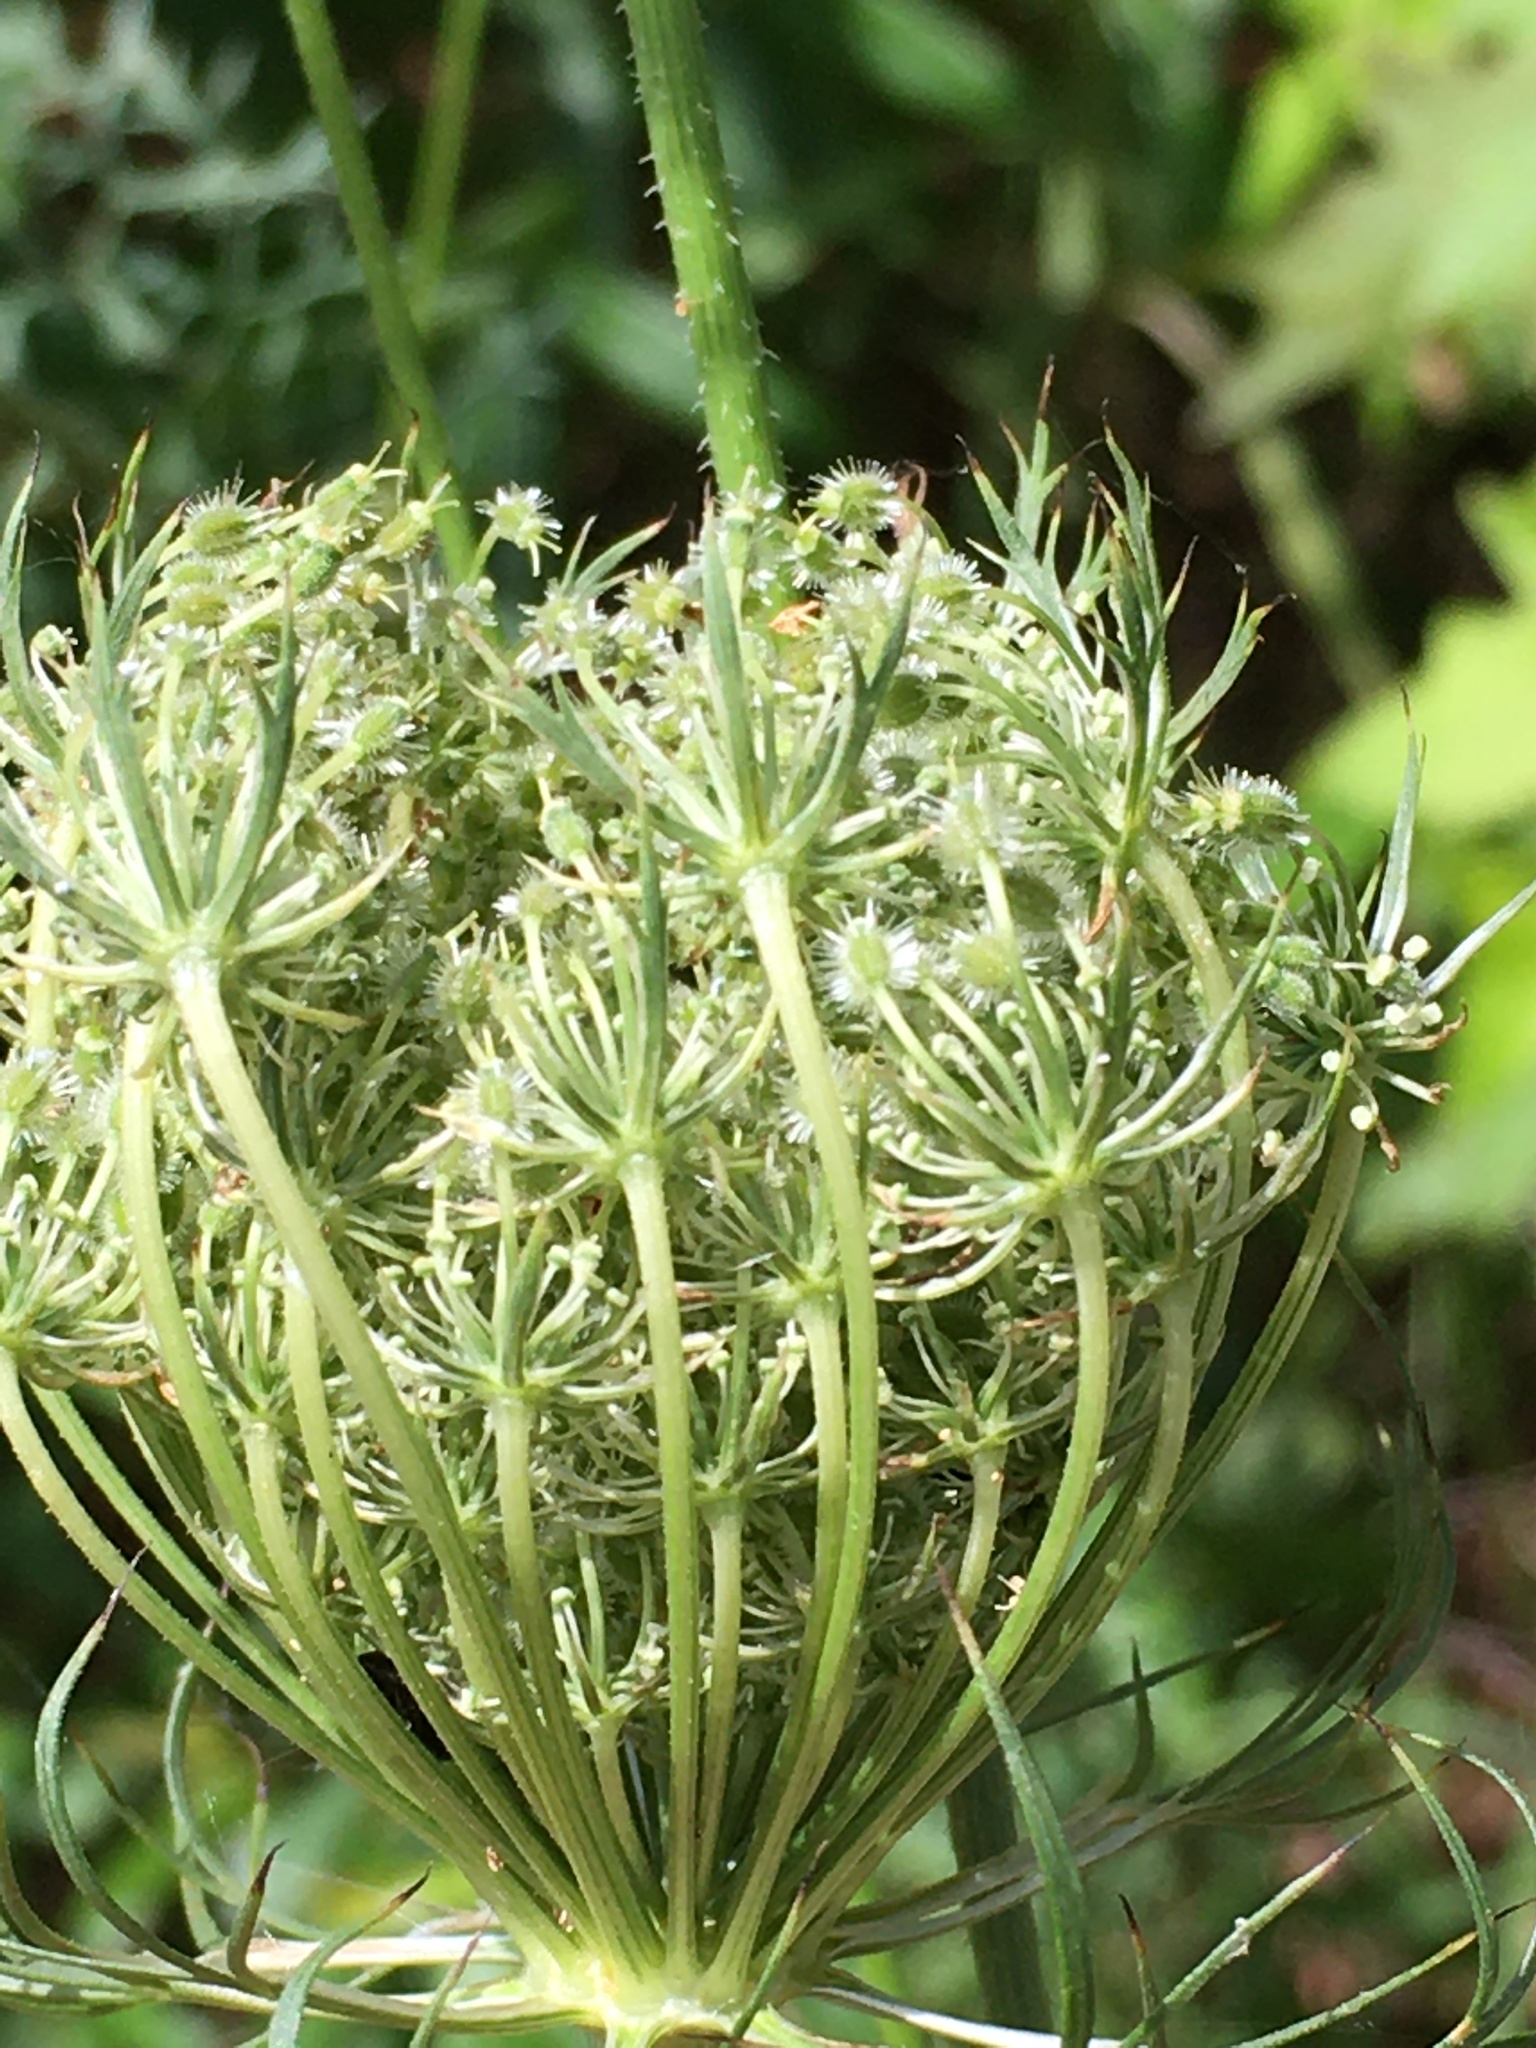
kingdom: Plantae
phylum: Tracheophyta
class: Magnoliopsida
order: Apiales
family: Apiaceae
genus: Daucus
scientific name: Daucus carota
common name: Wild carrot
